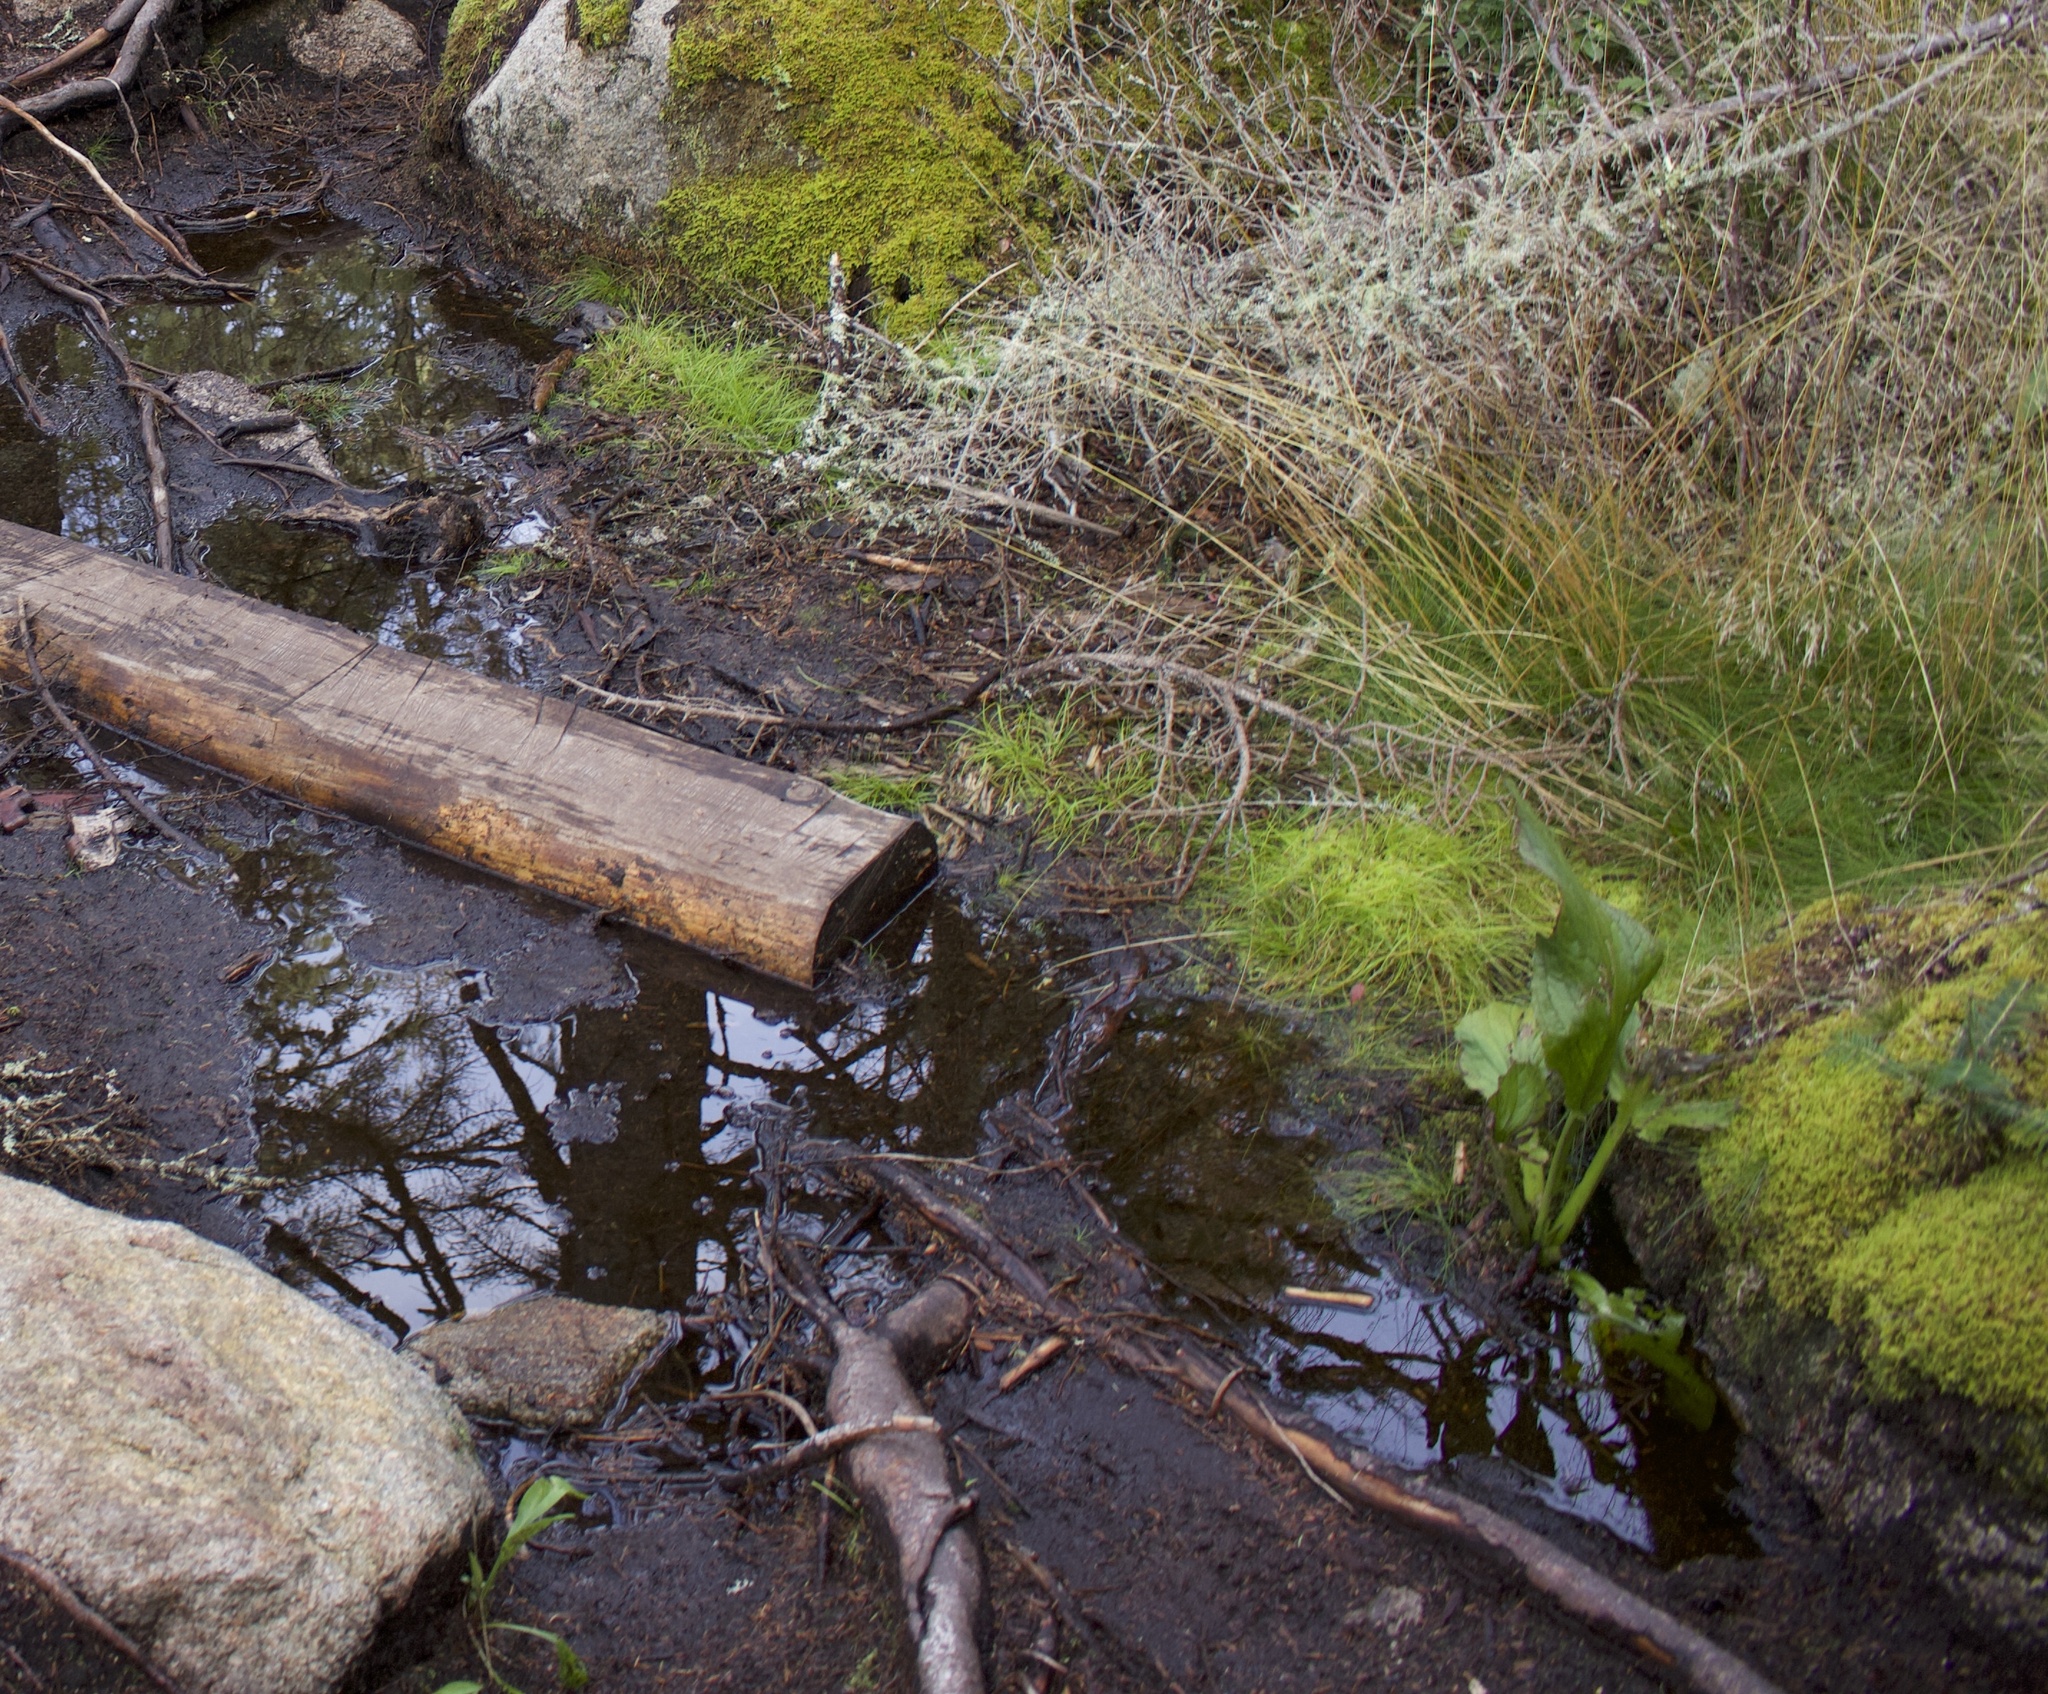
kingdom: Plantae
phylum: Tracheophyta
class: Liliopsida
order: Alismatales
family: Araceae
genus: Symplocarpus
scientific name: Symplocarpus foetidus
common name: Eastern skunk cabbage
